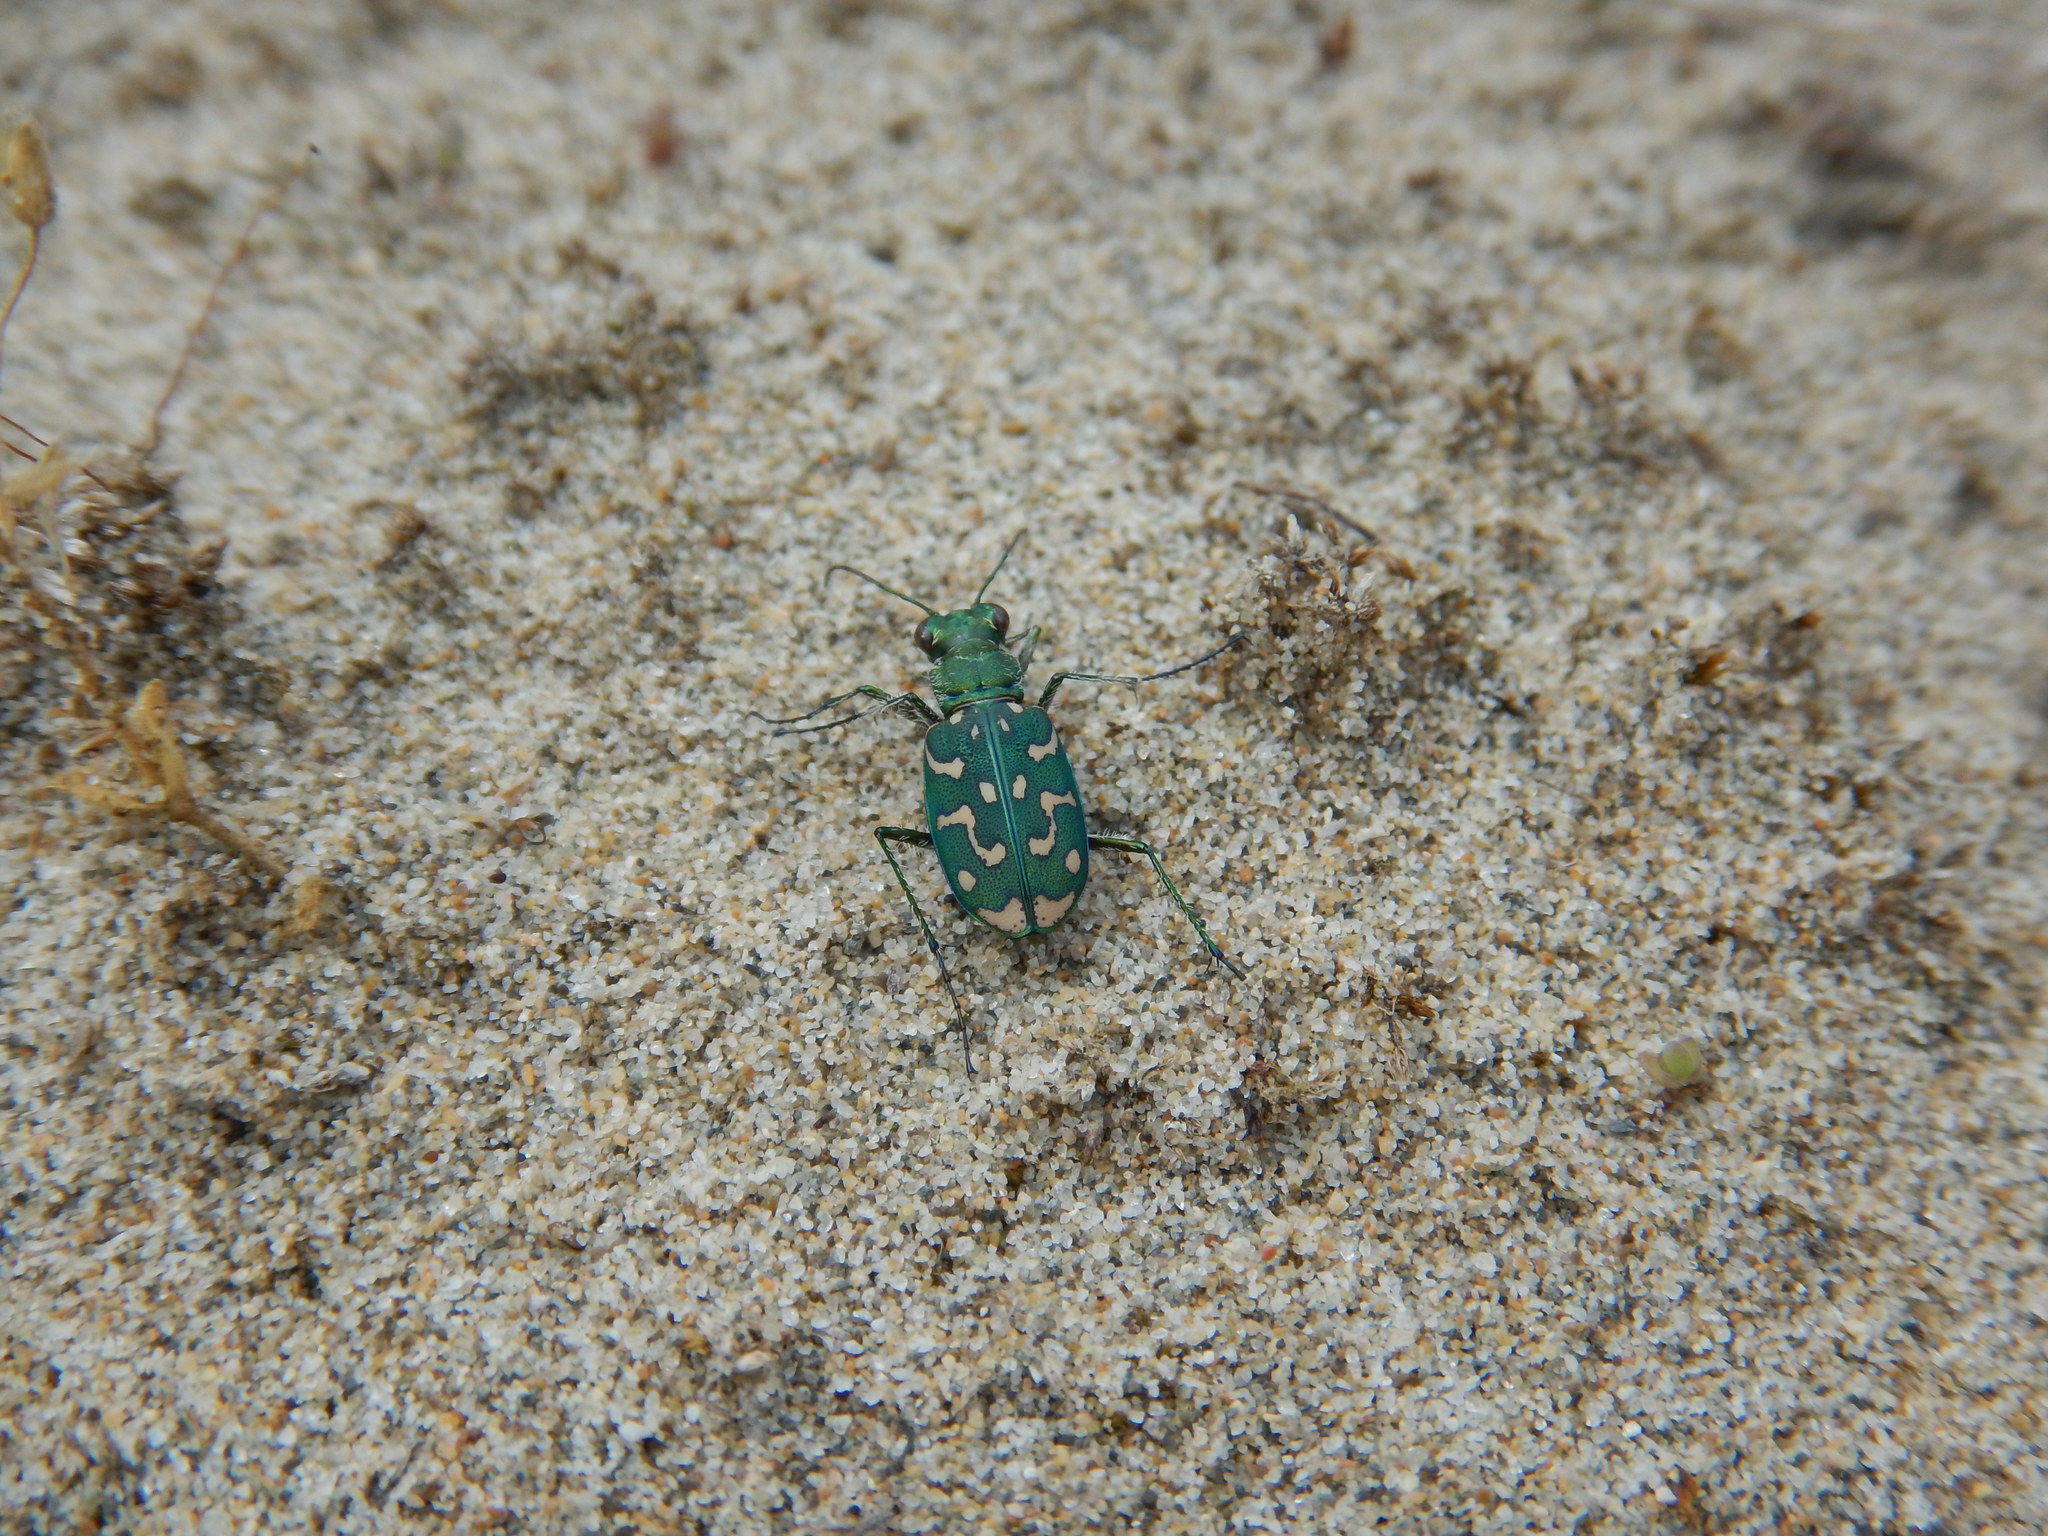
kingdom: Animalia
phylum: Arthropoda
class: Insecta
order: Coleoptera
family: Carabidae
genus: Lophyra
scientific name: Lophyra flexuosa
